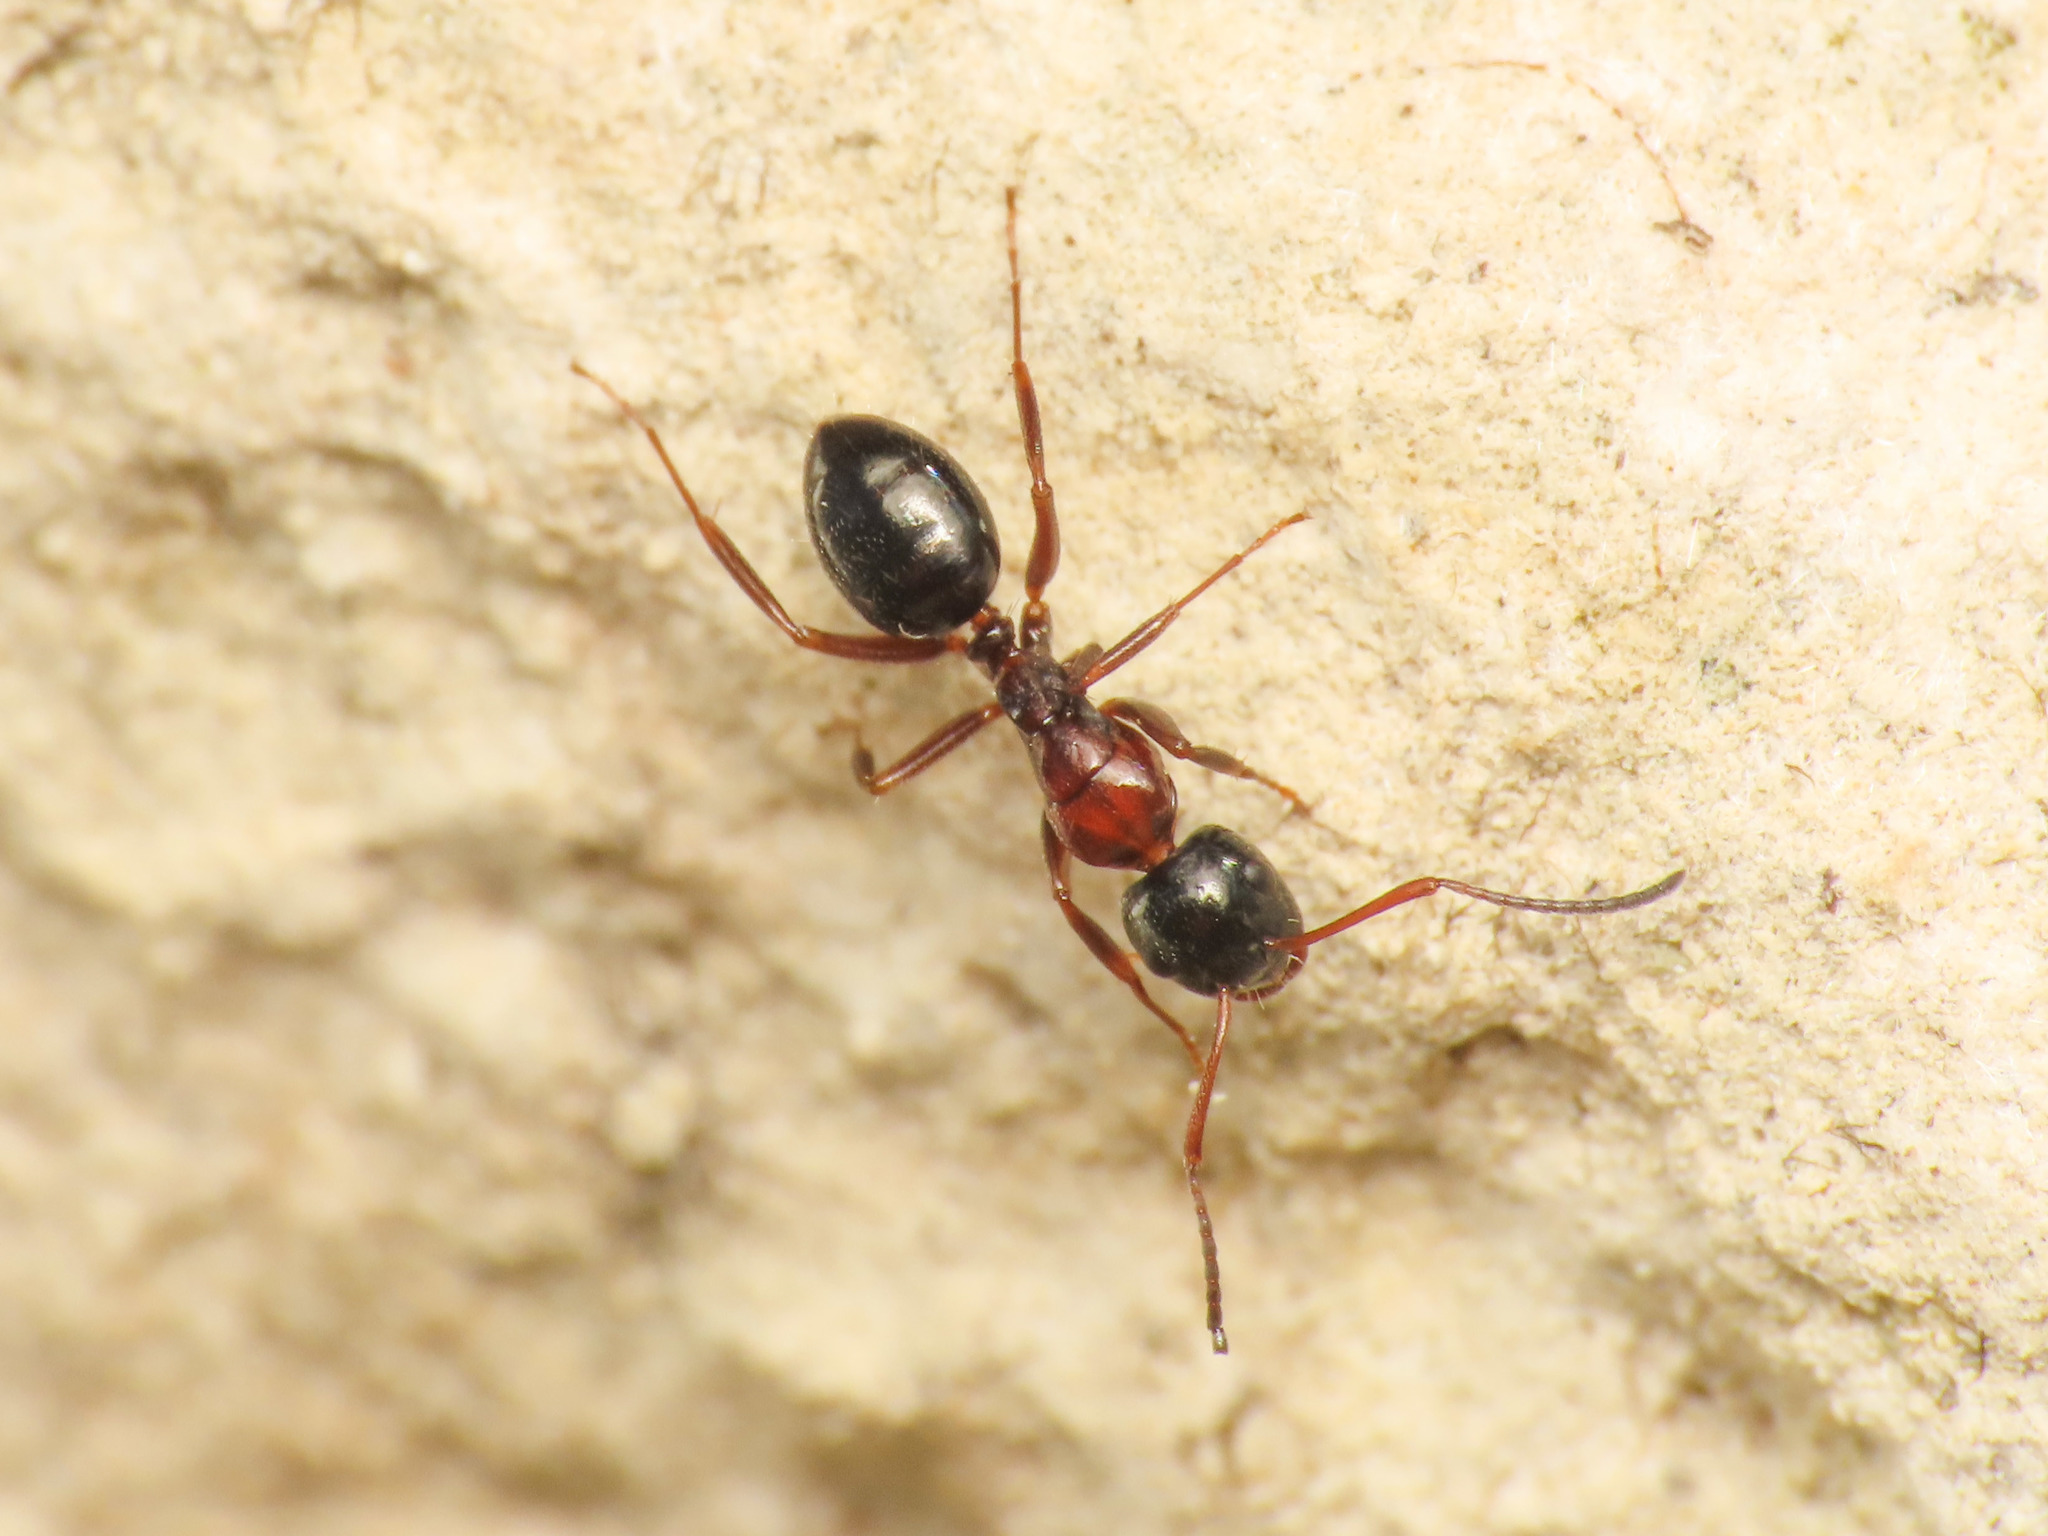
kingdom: Animalia
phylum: Arthropoda
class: Insecta
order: Hymenoptera
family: Formicidae
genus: Camponotus
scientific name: Camponotus dalmaticus
